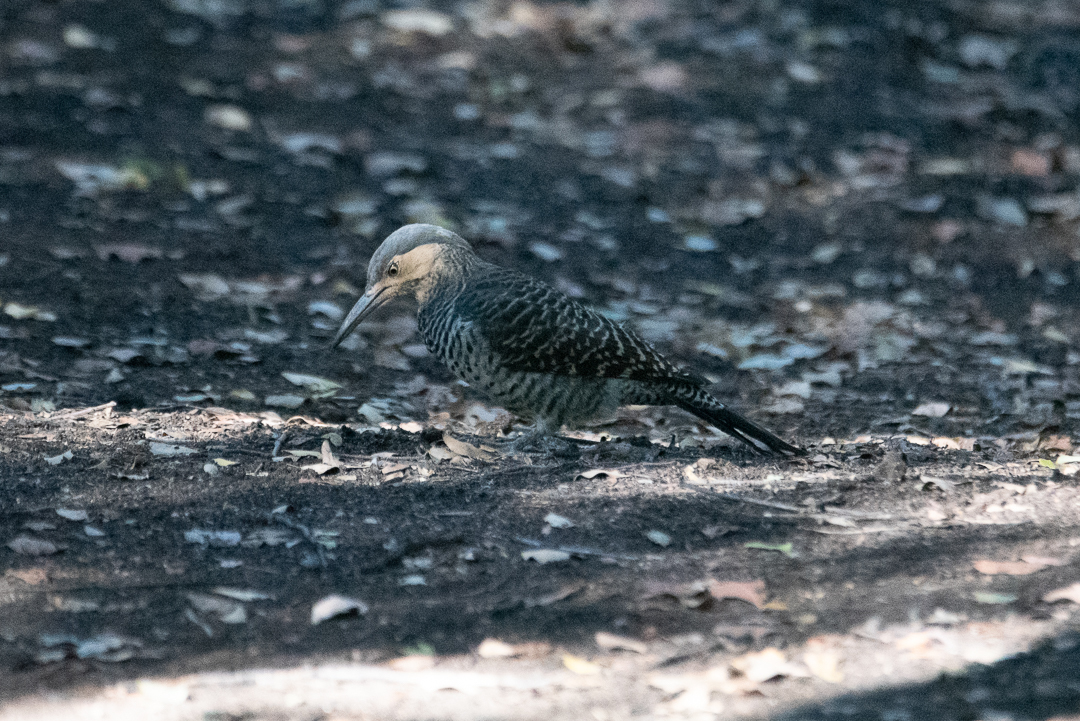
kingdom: Animalia
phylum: Chordata
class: Aves
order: Piciformes
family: Picidae
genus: Colaptes
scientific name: Colaptes pitius
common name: Chilean flicker
